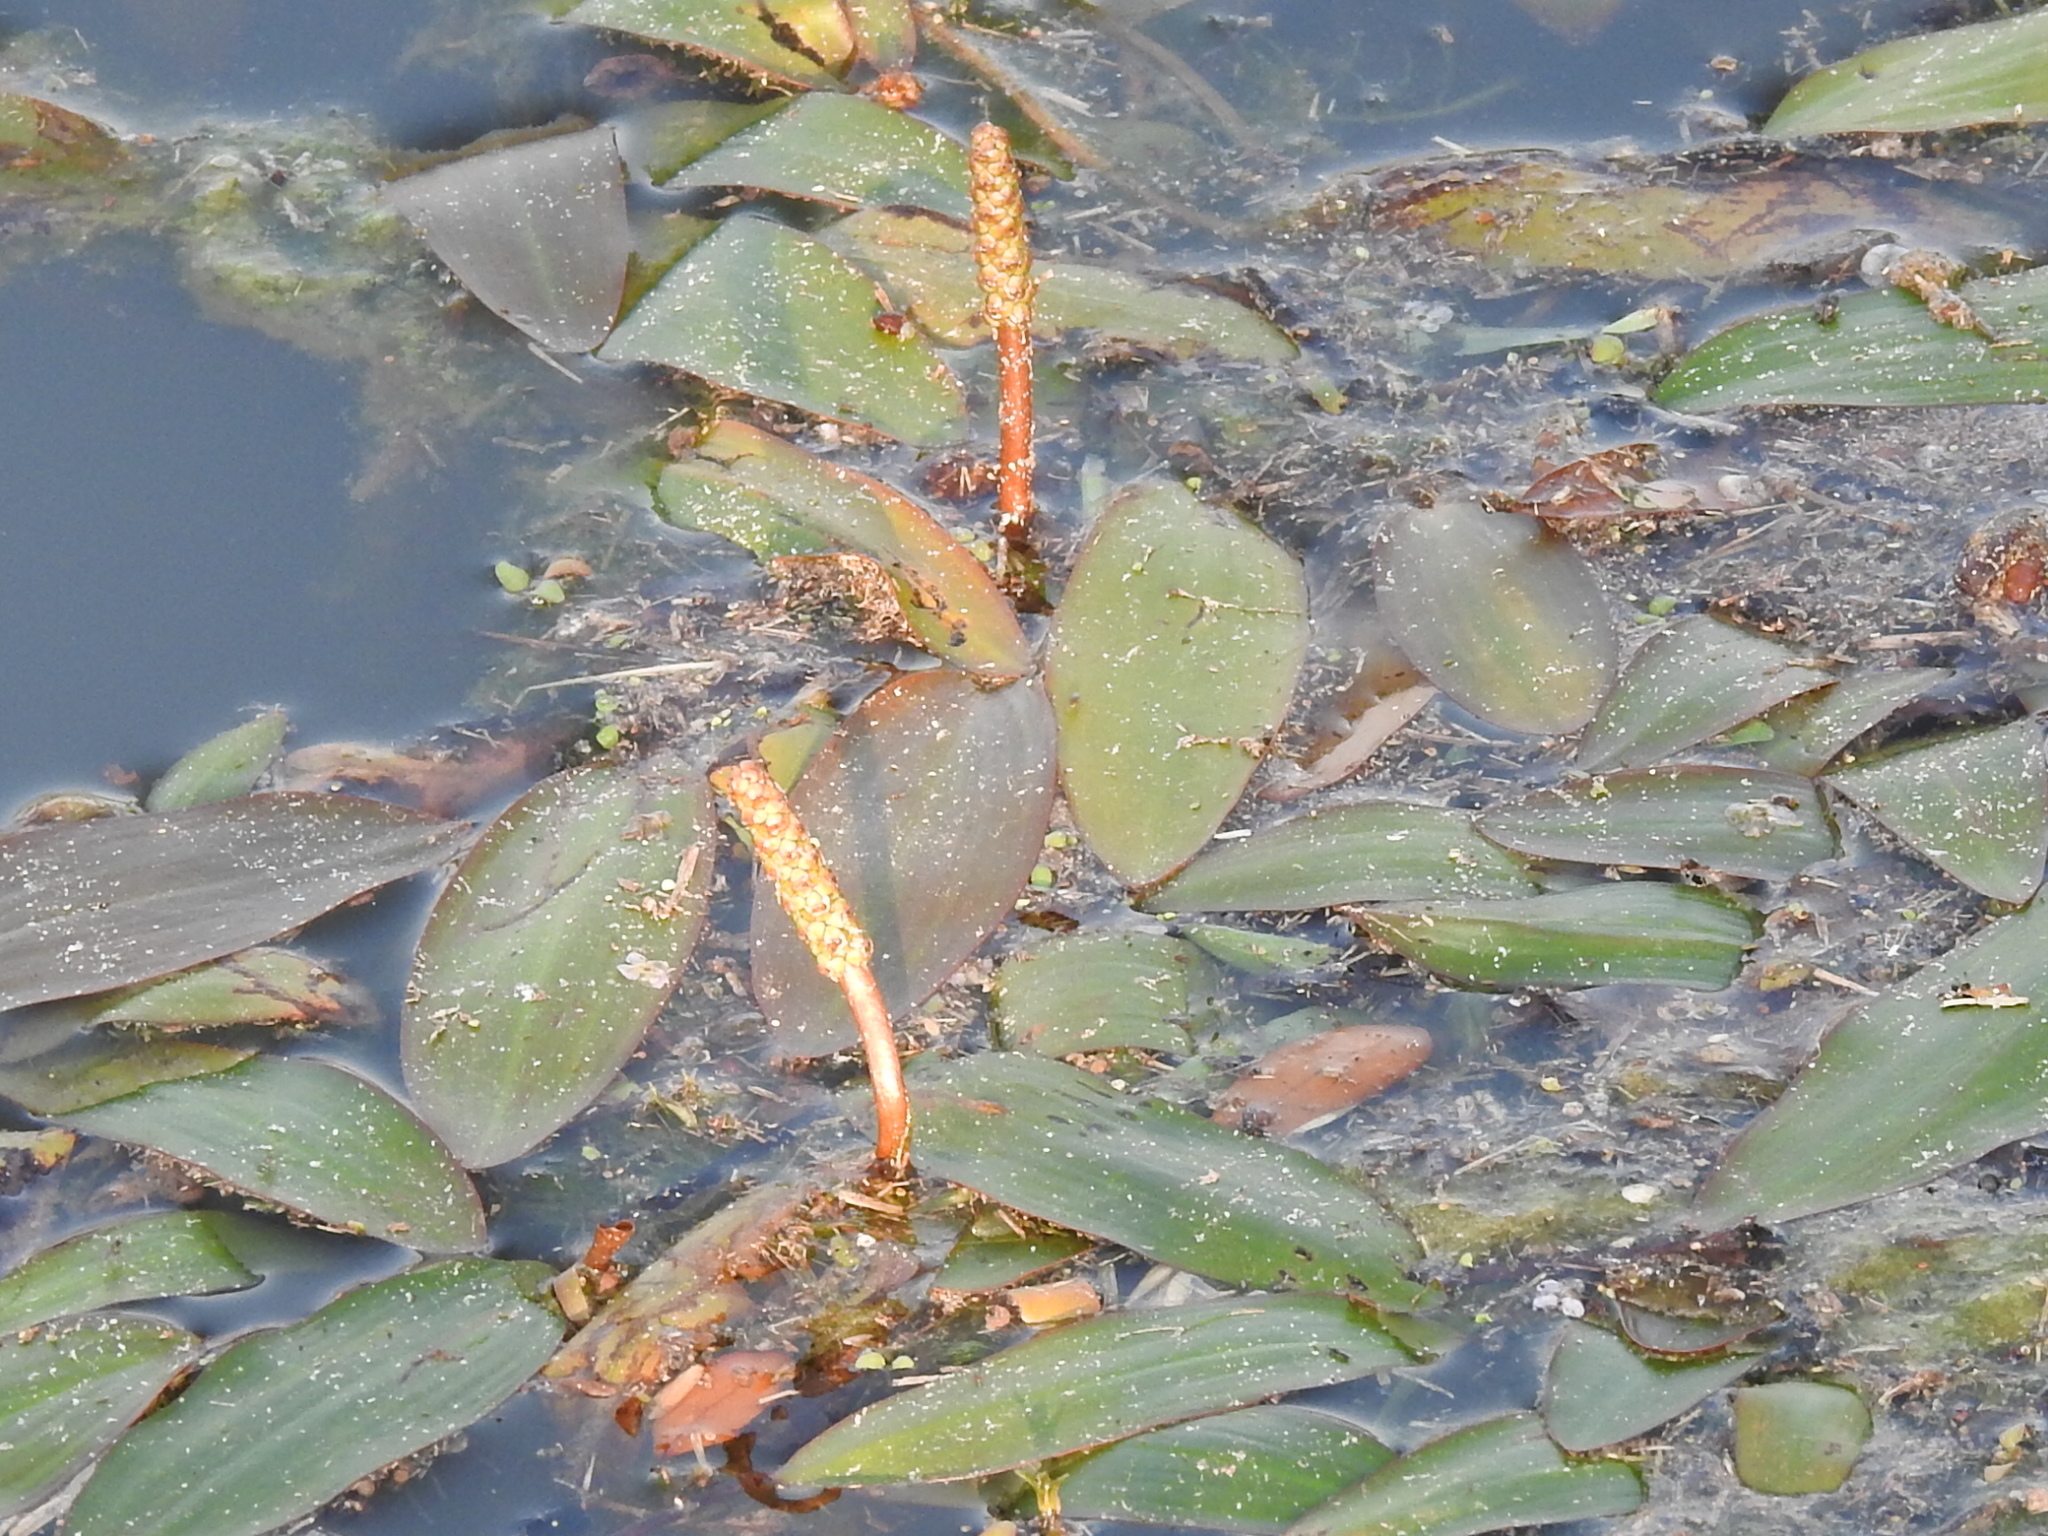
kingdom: Plantae
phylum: Tracheophyta
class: Liliopsida
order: Alismatales
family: Potamogetonaceae
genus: Potamogeton
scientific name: Potamogeton nodosus
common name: Loddon pondweed
